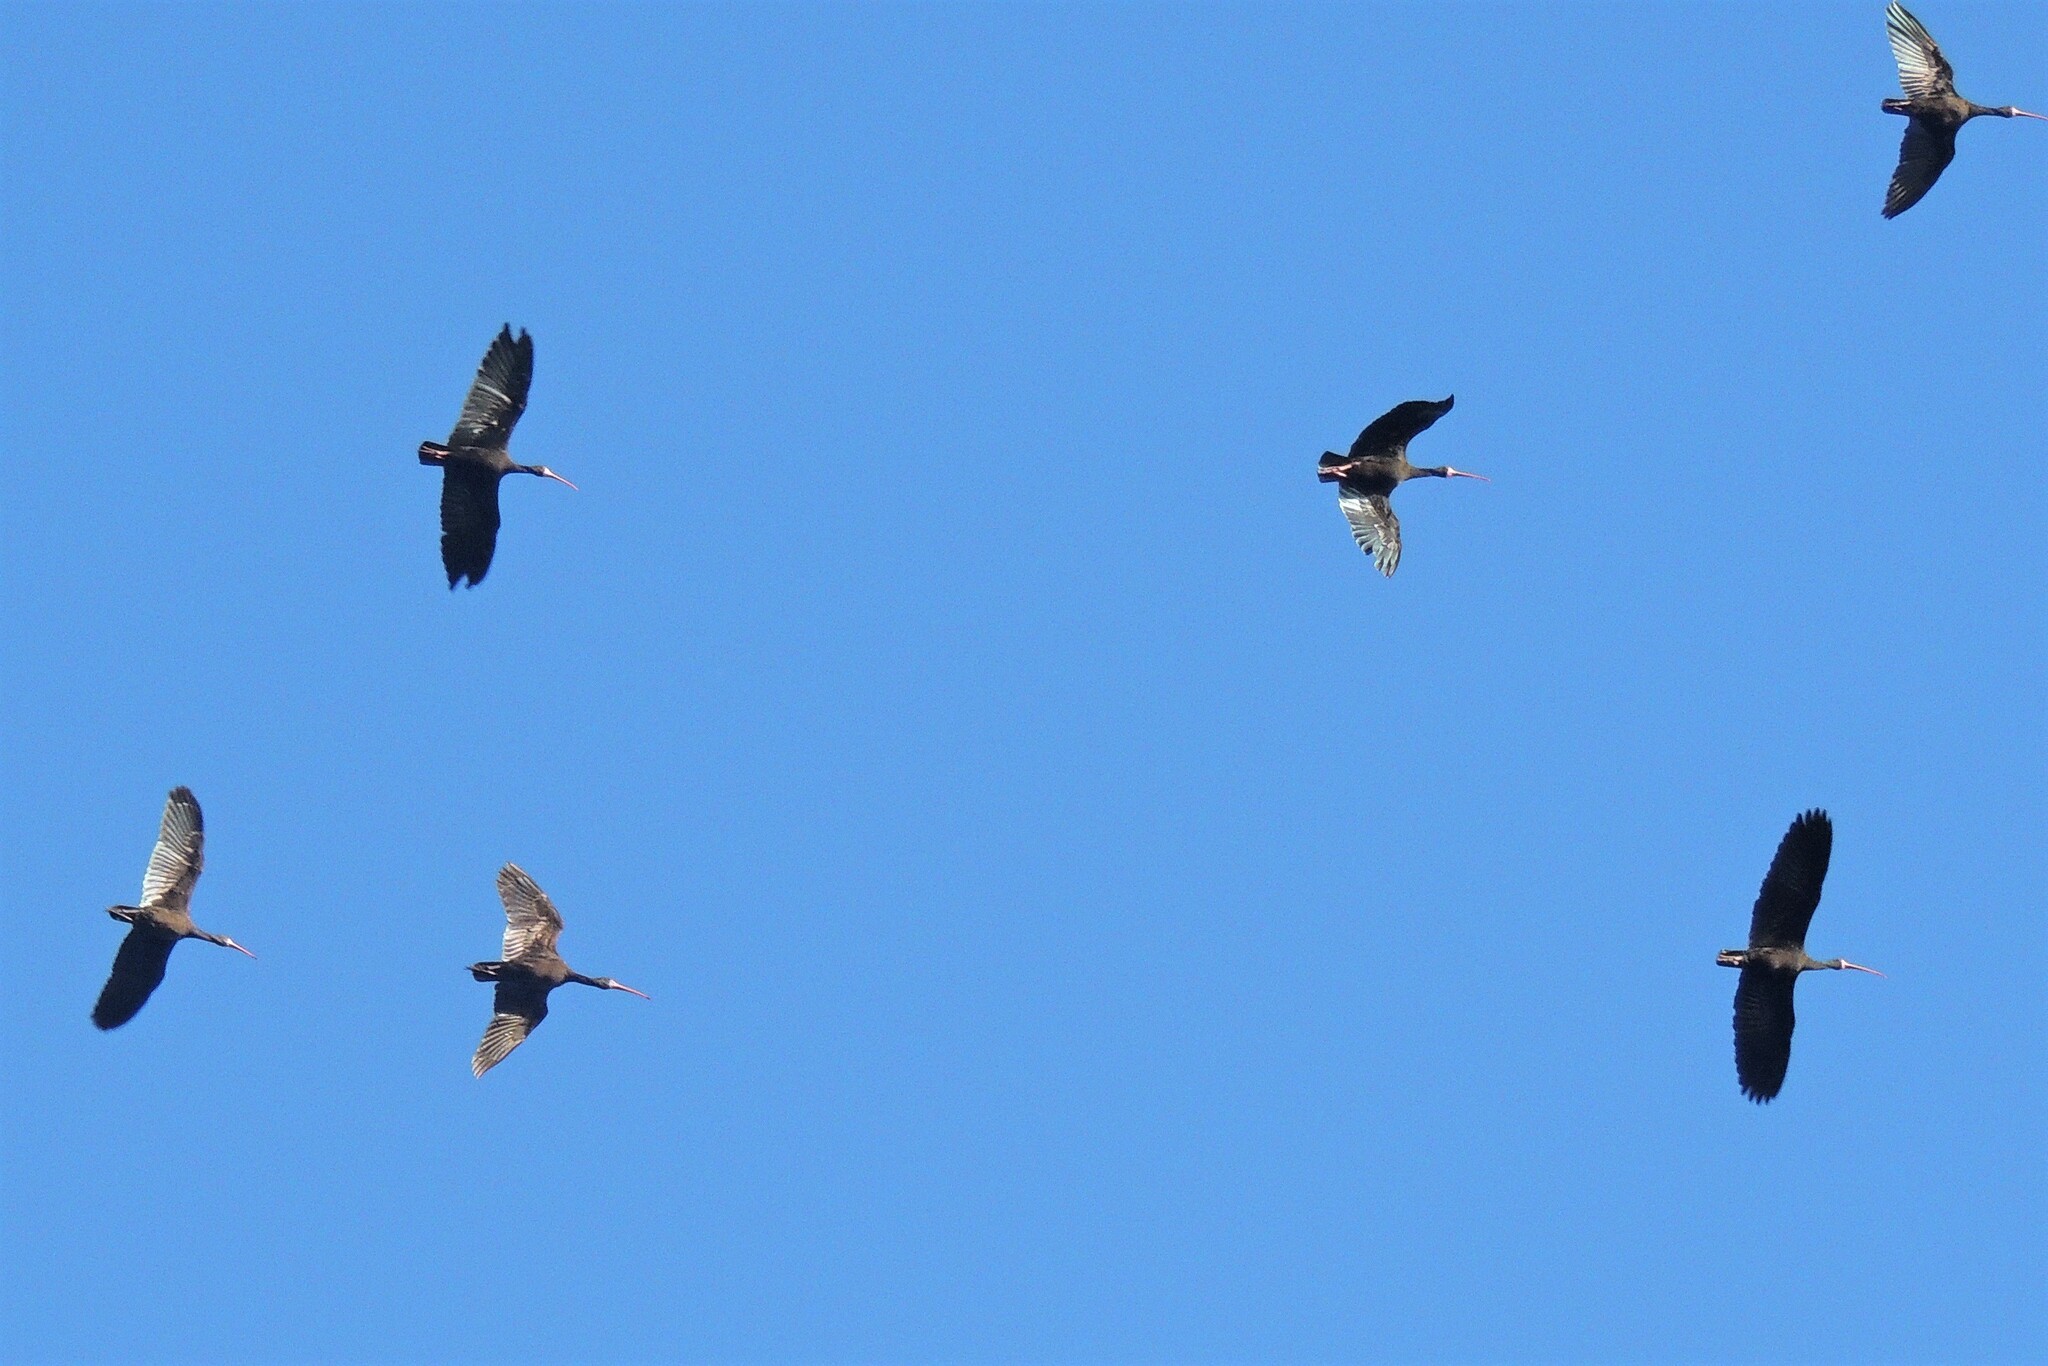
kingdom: Animalia
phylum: Chordata
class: Aves
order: Pelecaniformes
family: Threskiornithidae
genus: Phimosus
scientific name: Phimosus infuscatus
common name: Bare-faced ibis
